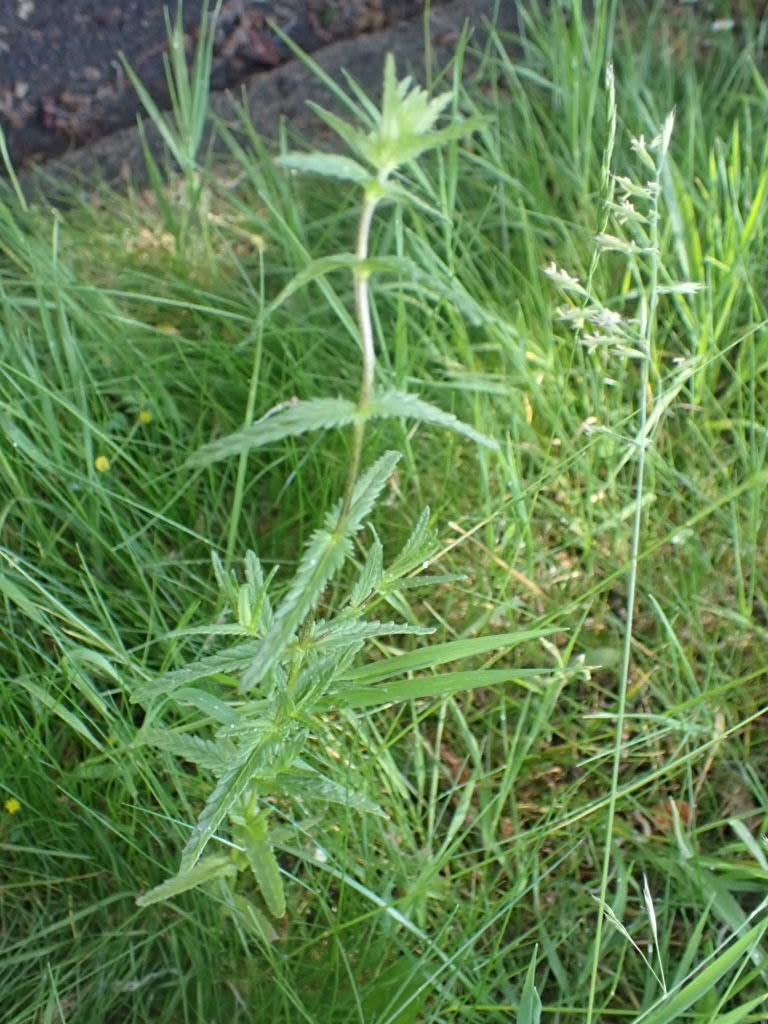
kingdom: Plantae
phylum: Tracheophyta
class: Magnoliopsida
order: Lamiales
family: Orobanchaceae
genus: Rhinanthus
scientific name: Rhinanthus minor
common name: Yellow-rattle
